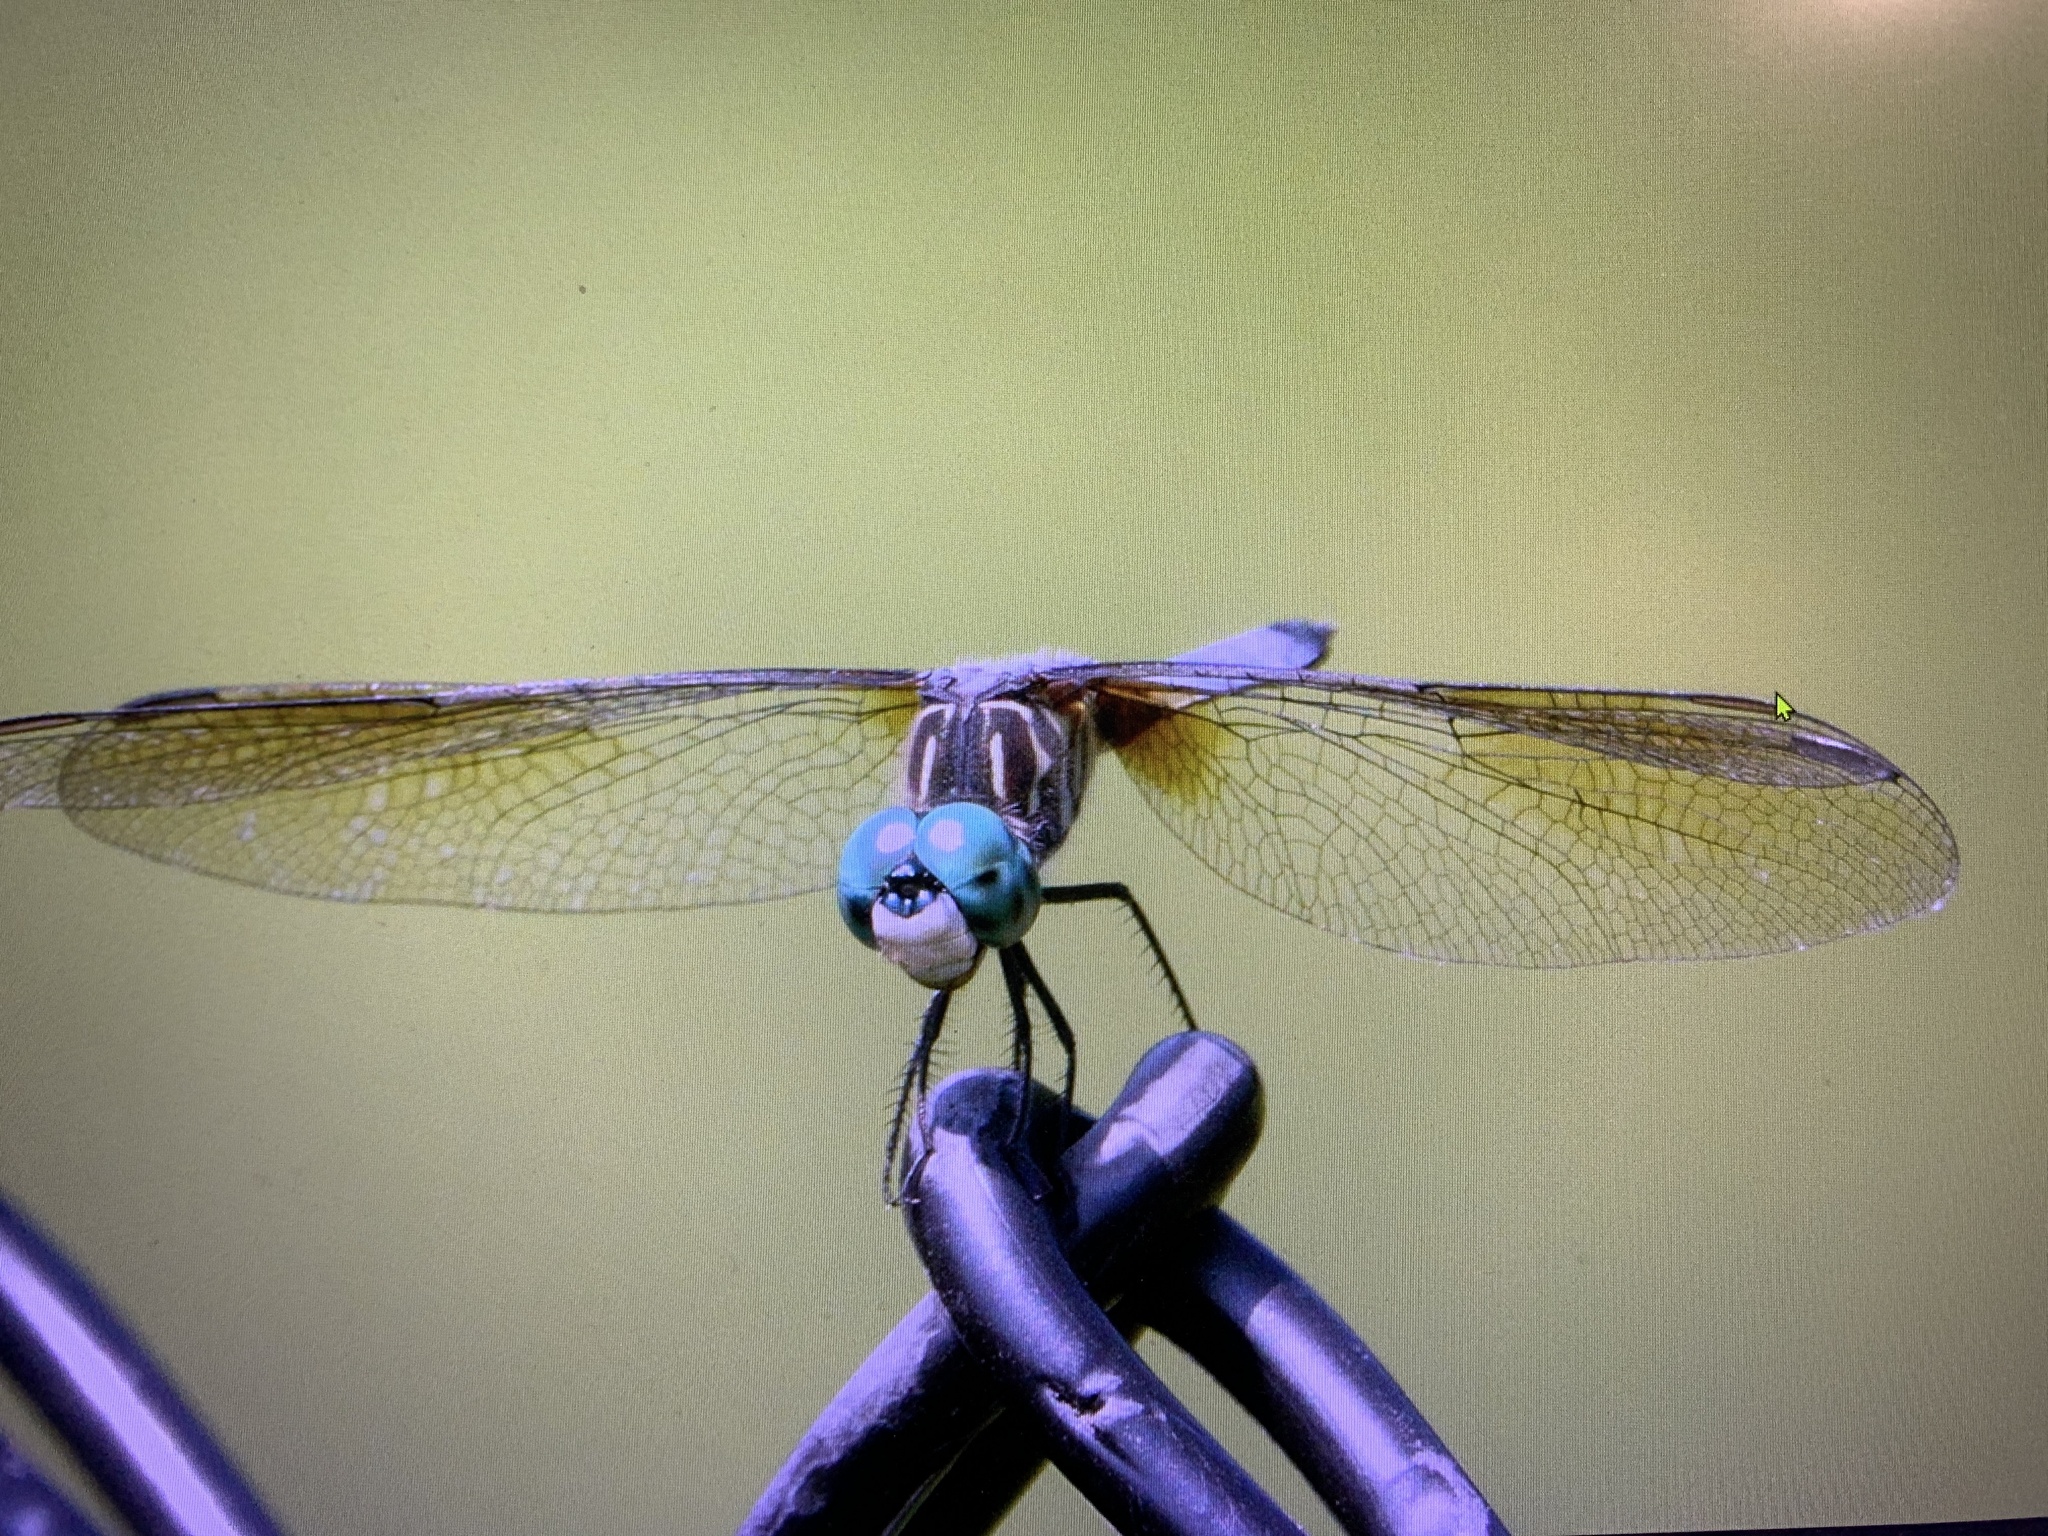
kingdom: Animalia
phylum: Arthropoda
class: Insecta
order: Odonata
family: Libellulidae
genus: Pachydiplax
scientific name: Pachydiplax longipennis
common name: Blue dasher
